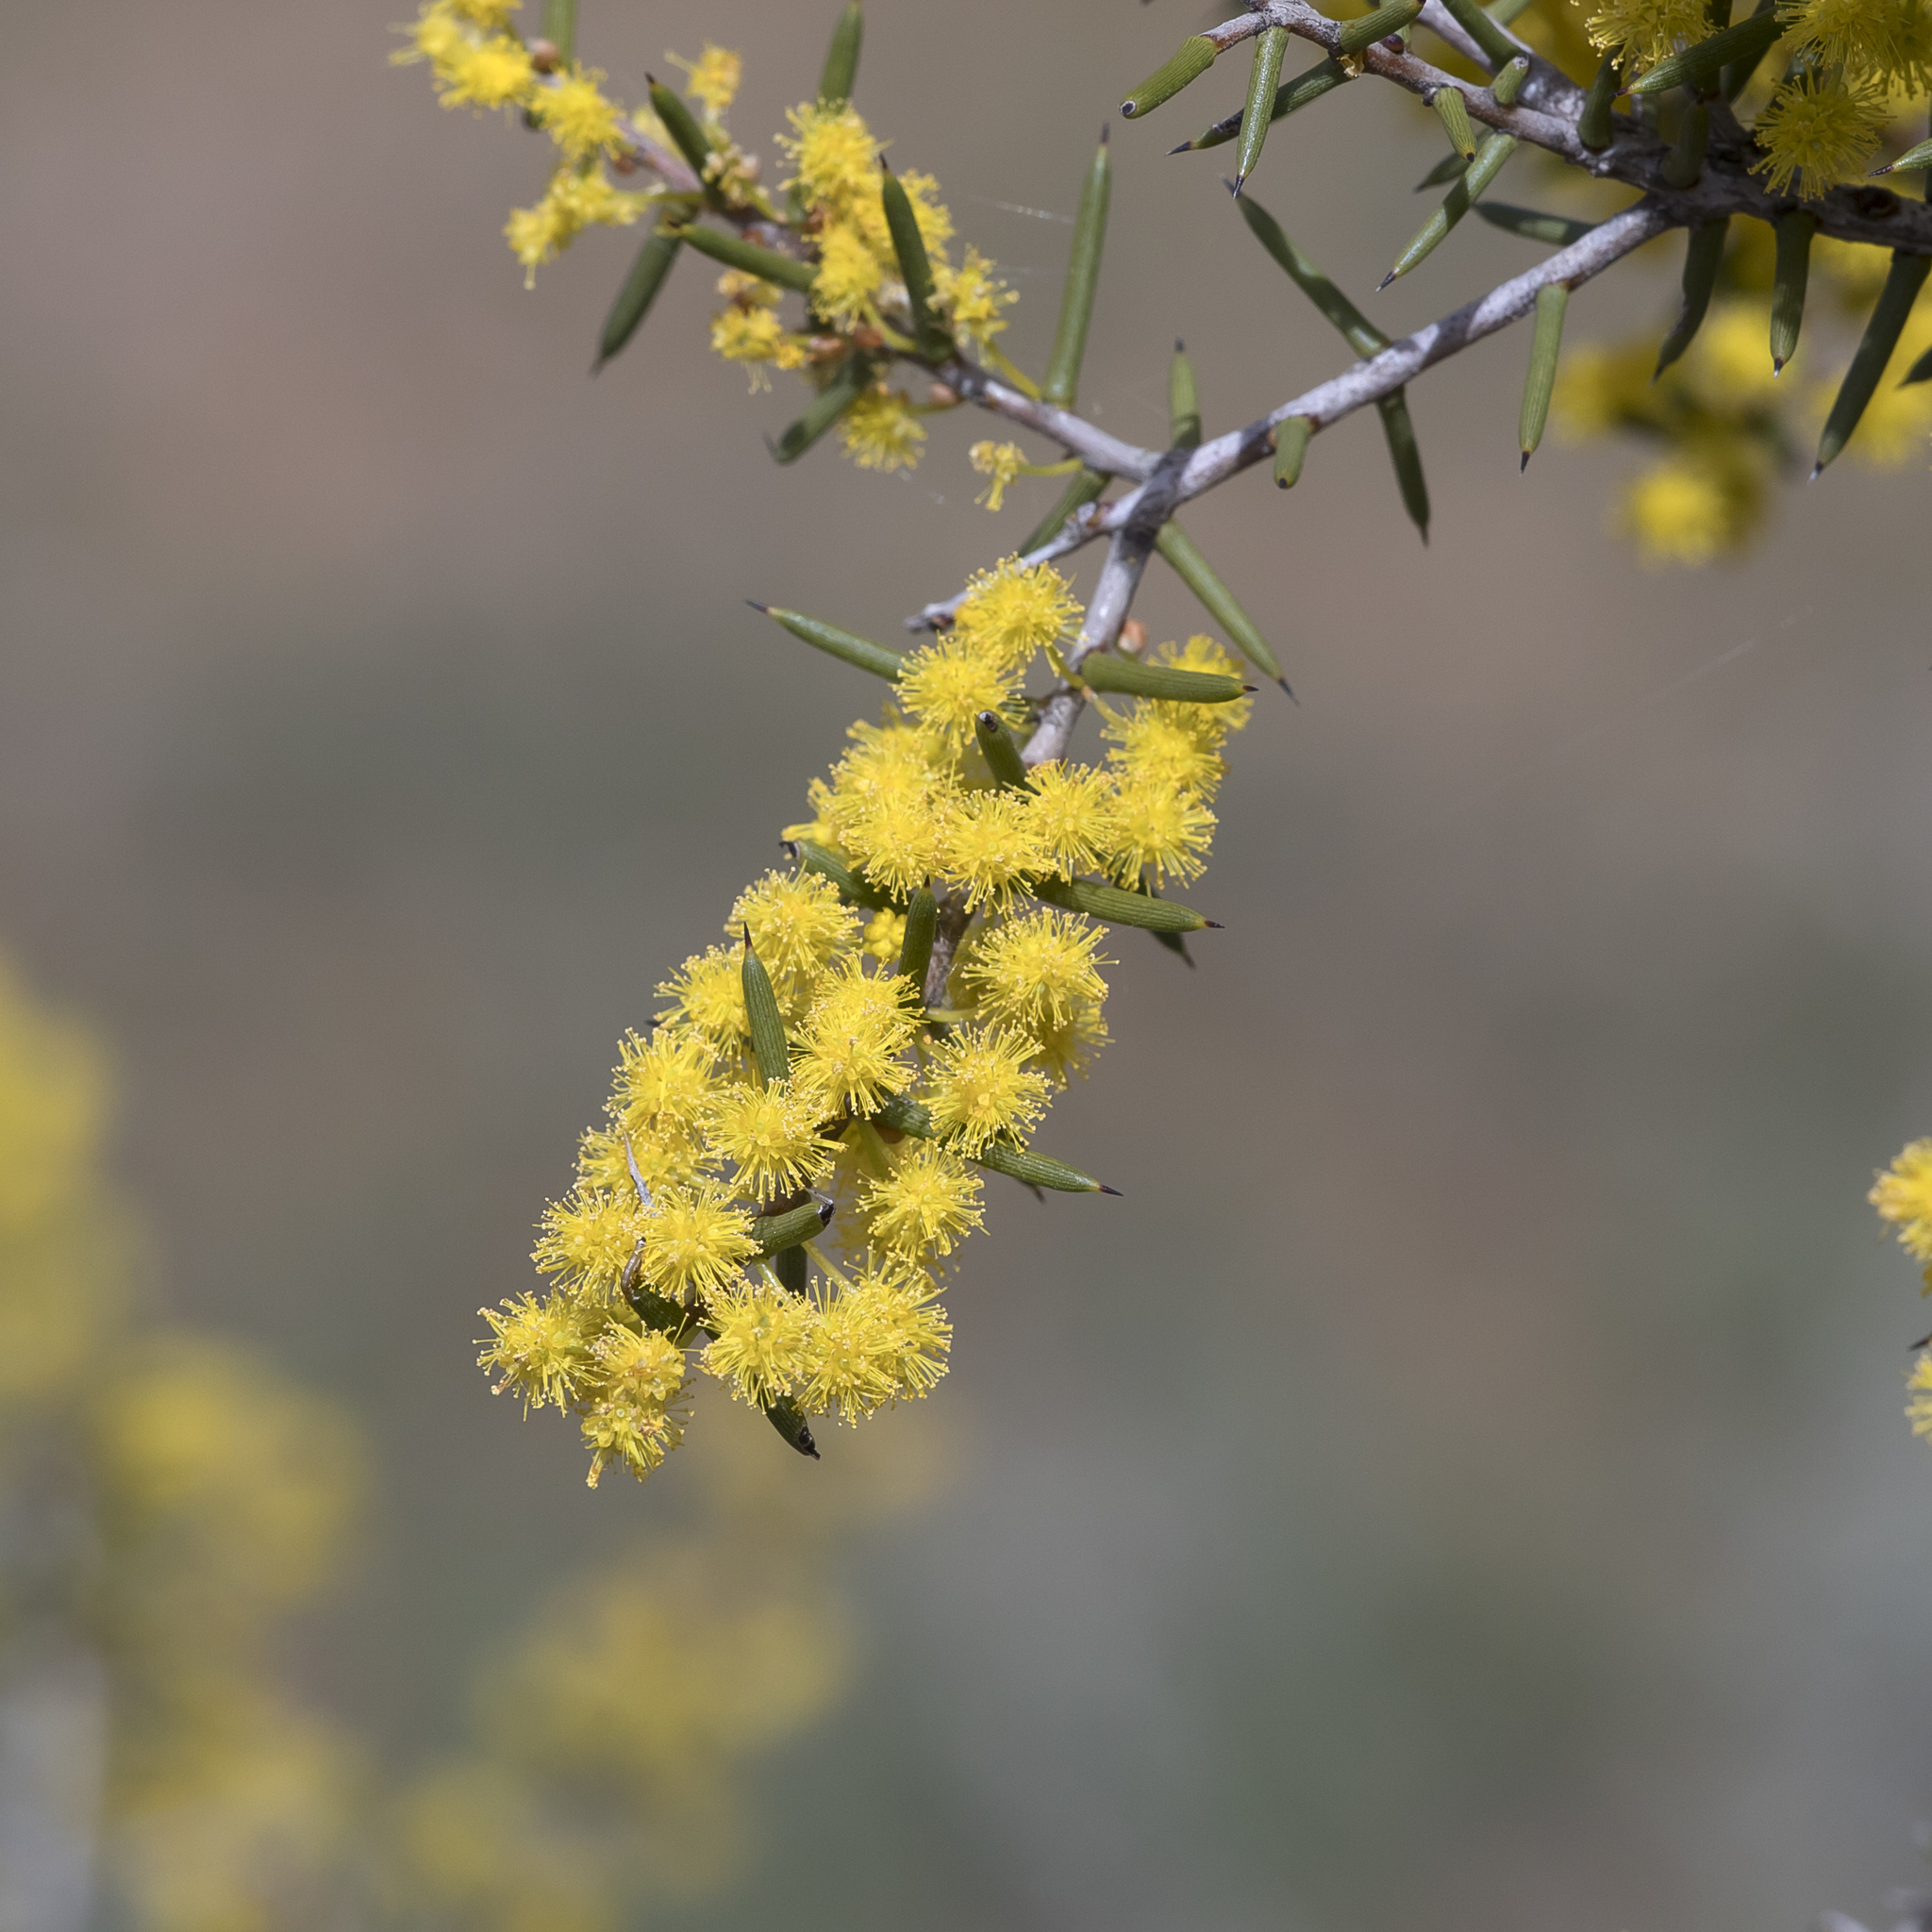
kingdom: Plantae
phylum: Tracheophyta
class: Magnoliopsida
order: Fabales
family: Fabaceae
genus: Acacia
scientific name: Acacia nyssophylla
